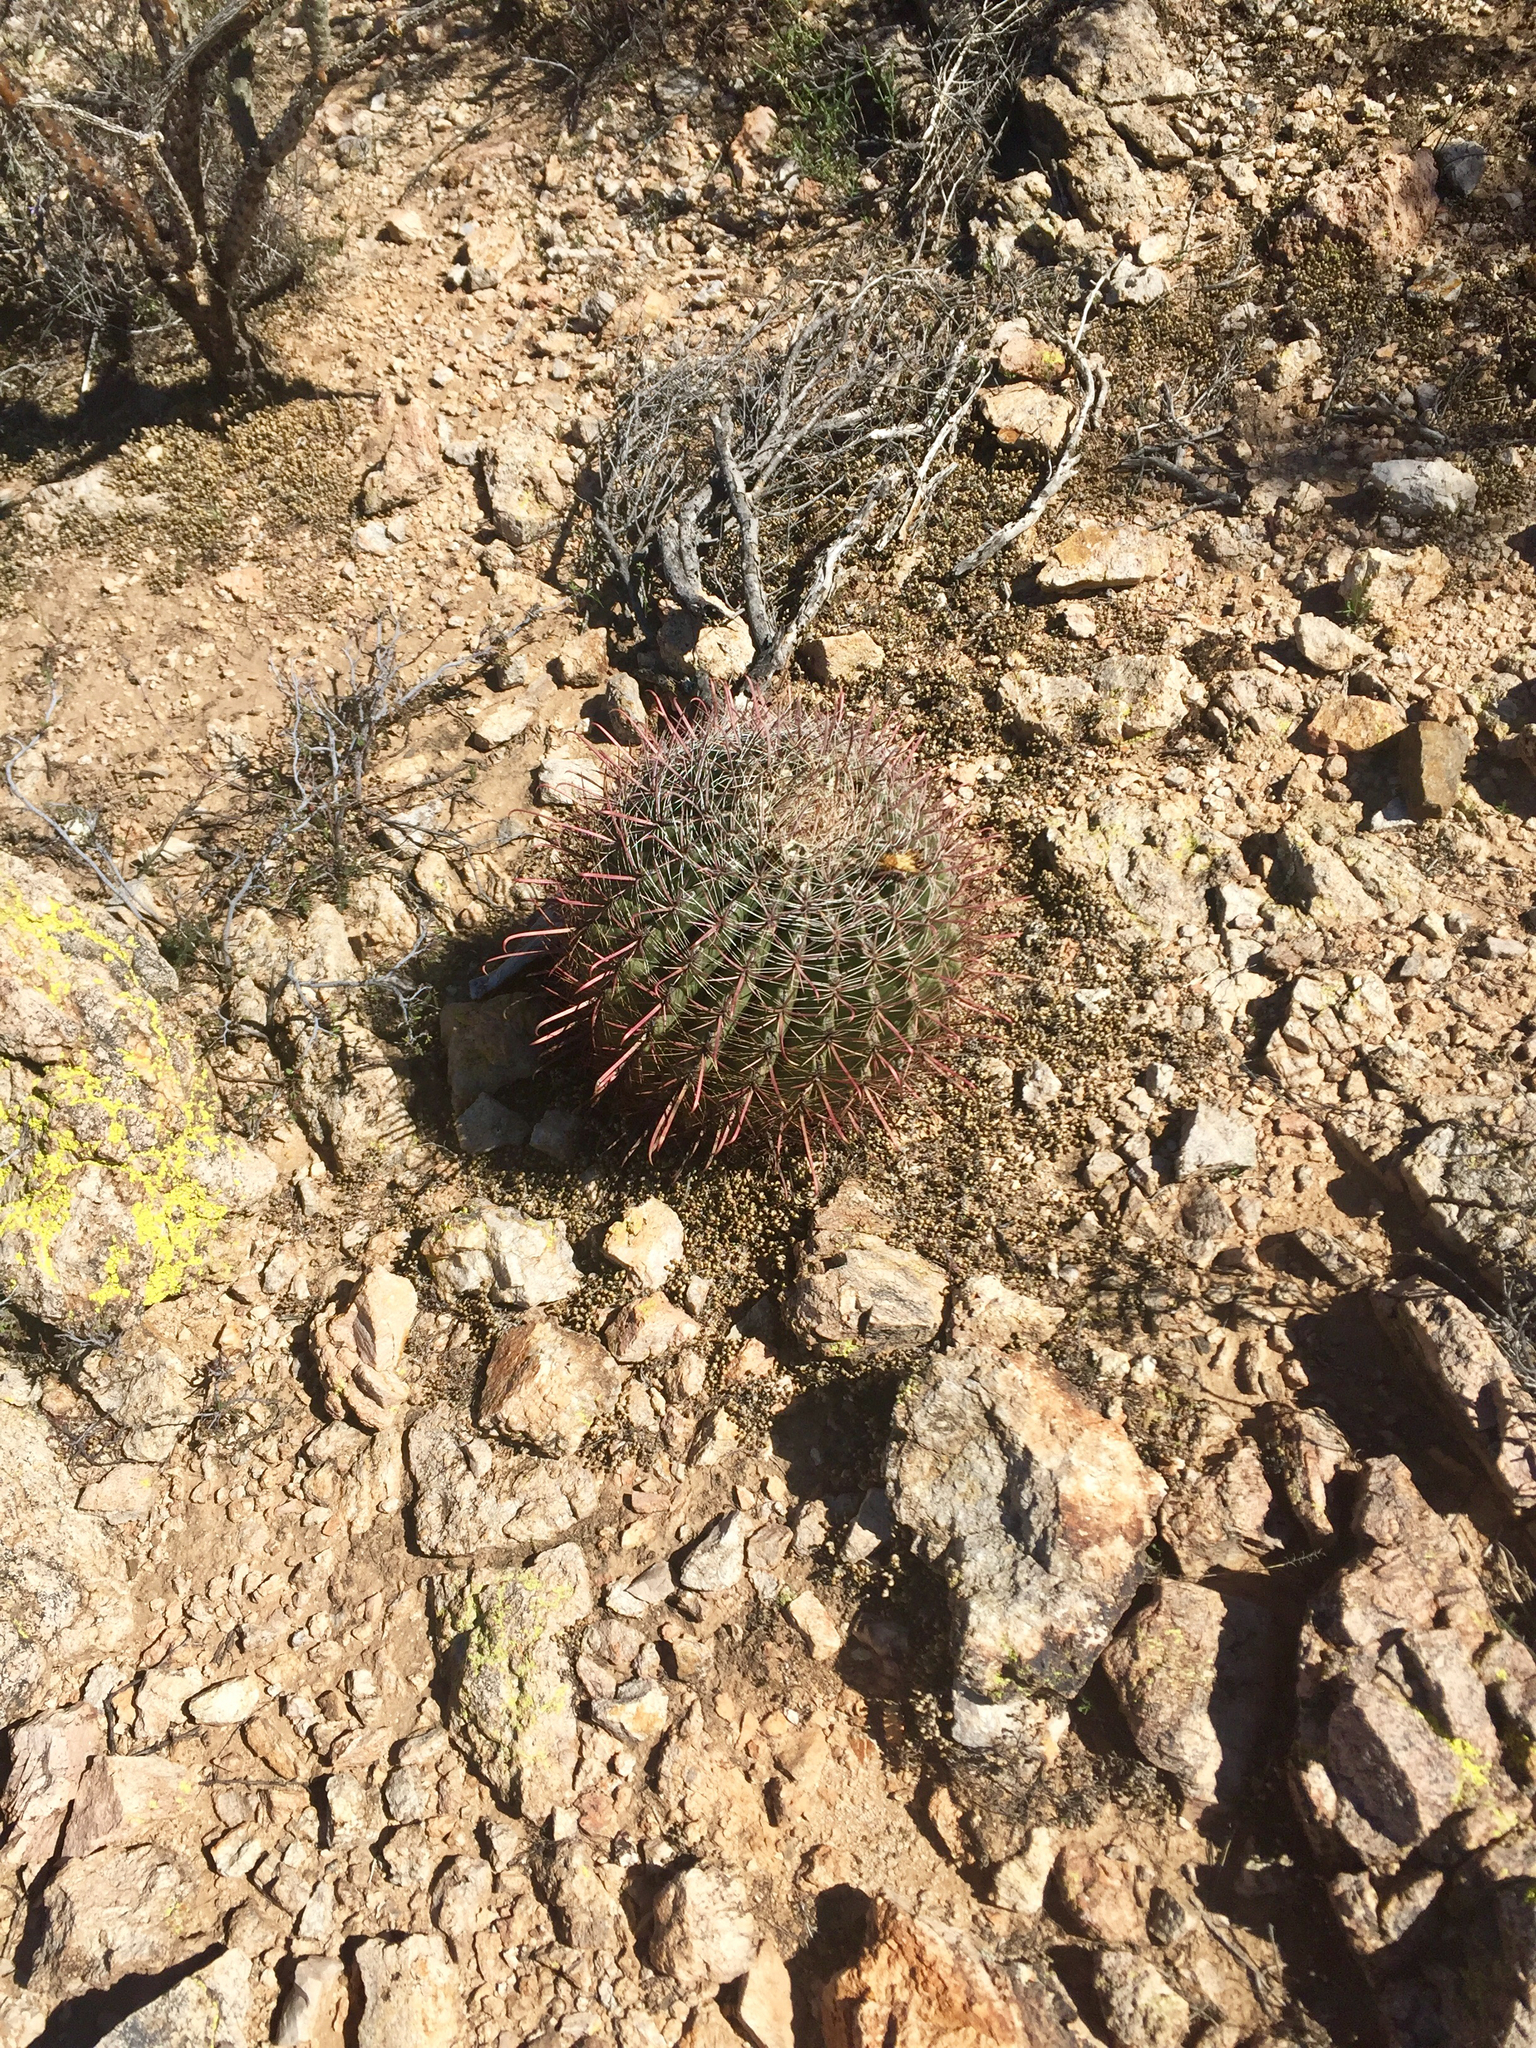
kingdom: Plantae
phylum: Tracheophyta
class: Magnoliopsida
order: Caryophyllales
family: Cactaceae
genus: Ferocactus
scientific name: Ferocactus wislizeni
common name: Candy barrel cactus
